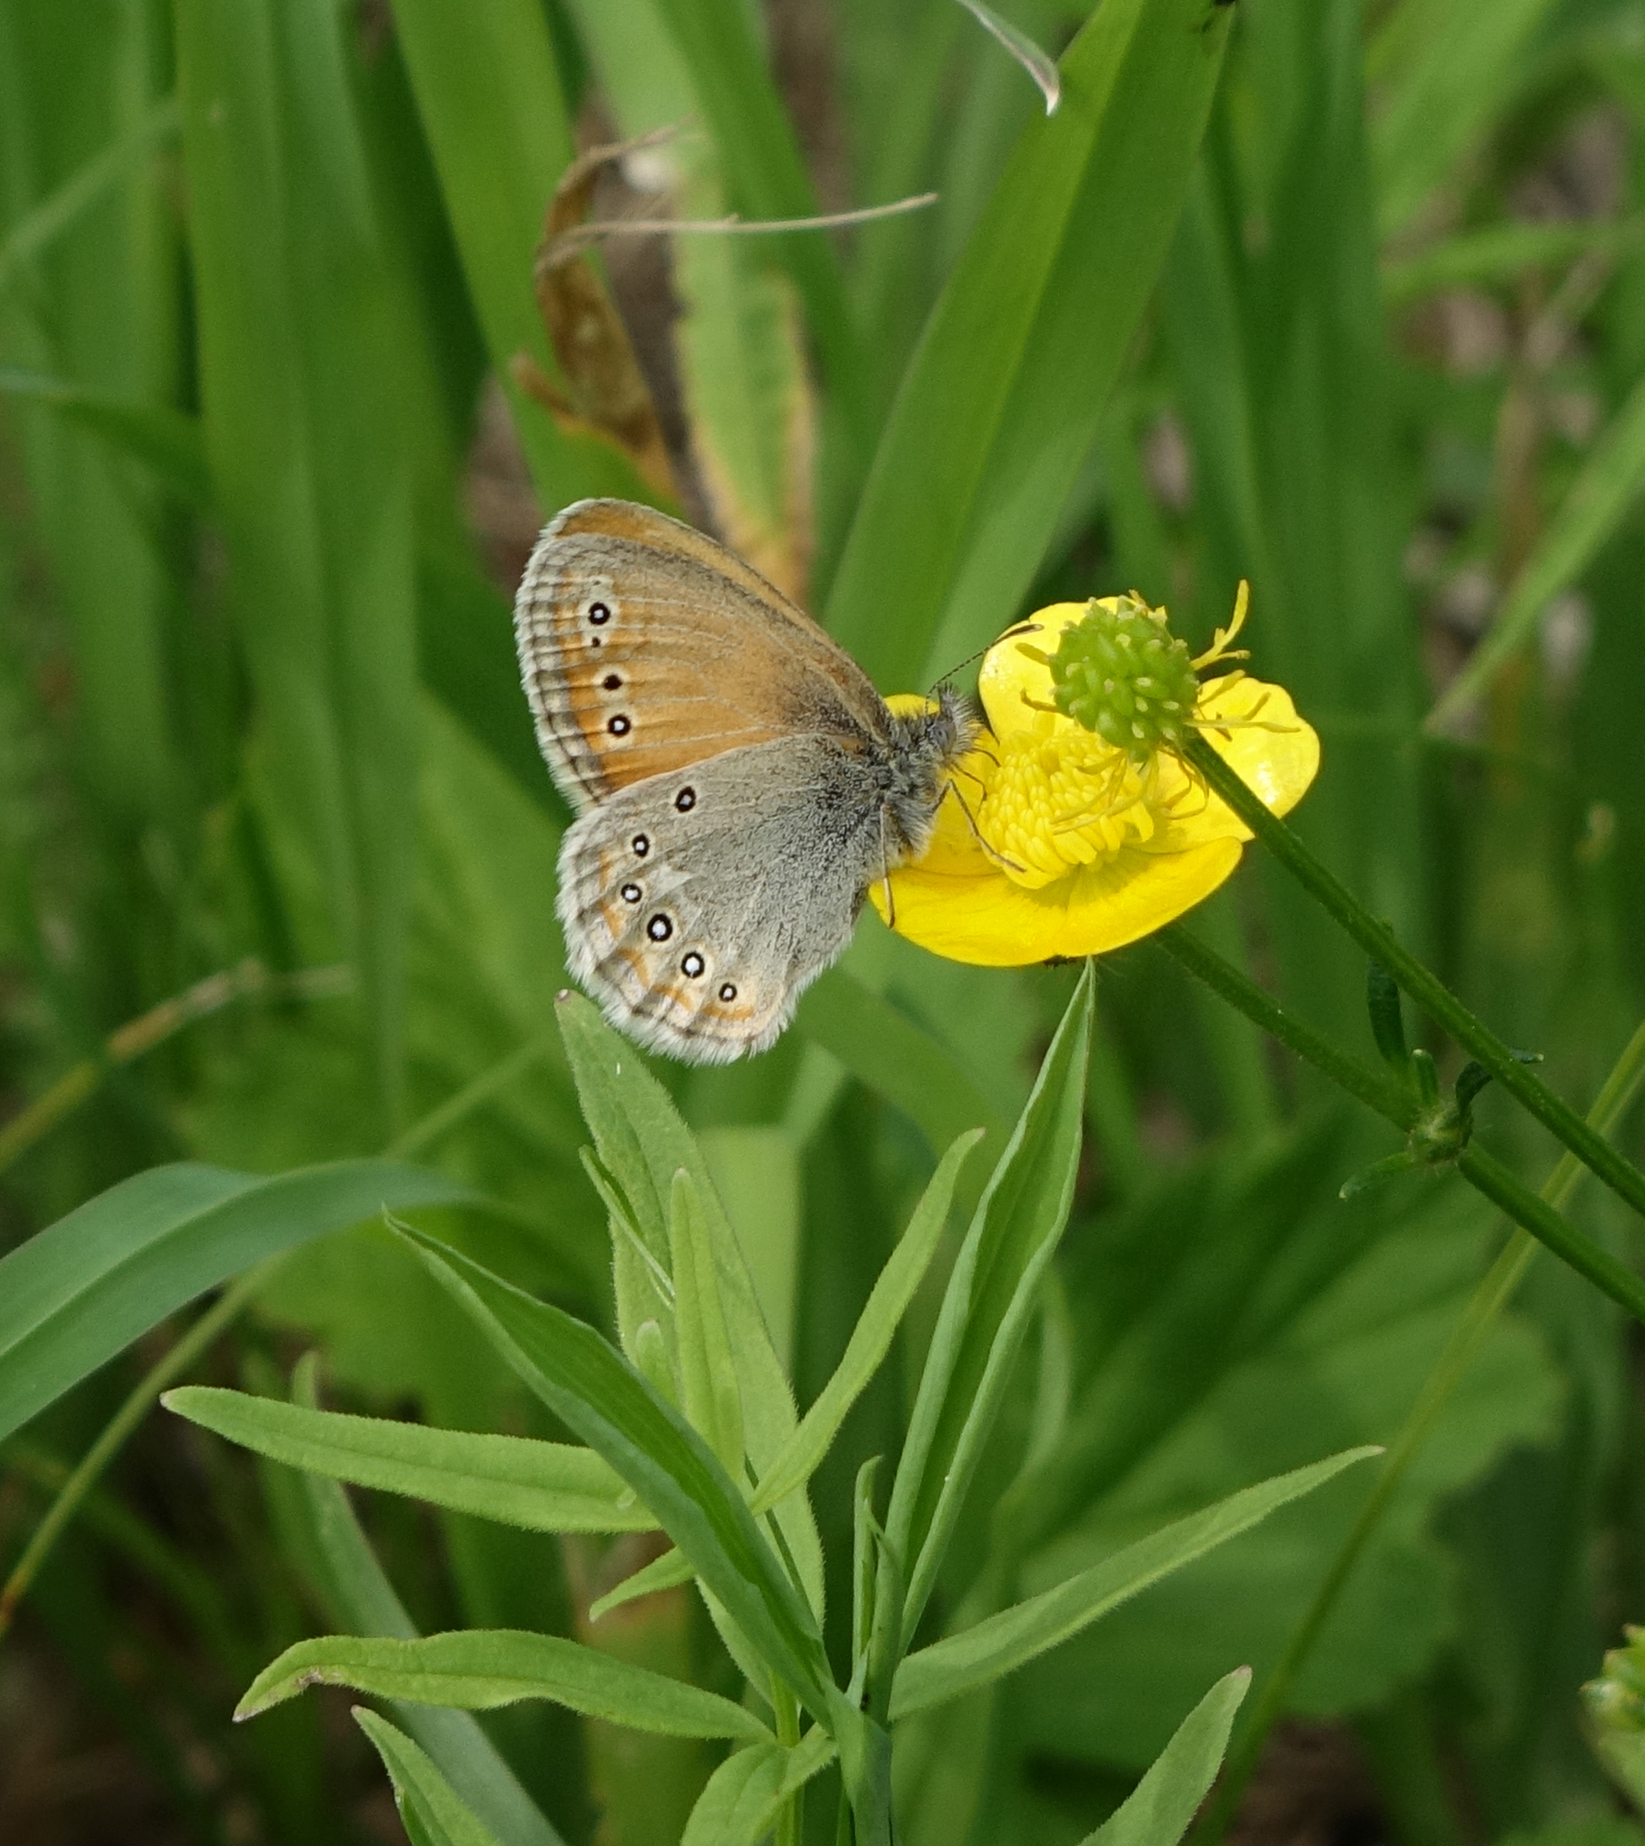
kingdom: Animalia
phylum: Arthropoda
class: Insecta
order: Lepidoptera
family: Nymphalidae
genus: Coenonympha
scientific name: Coenonympha amaryllis
